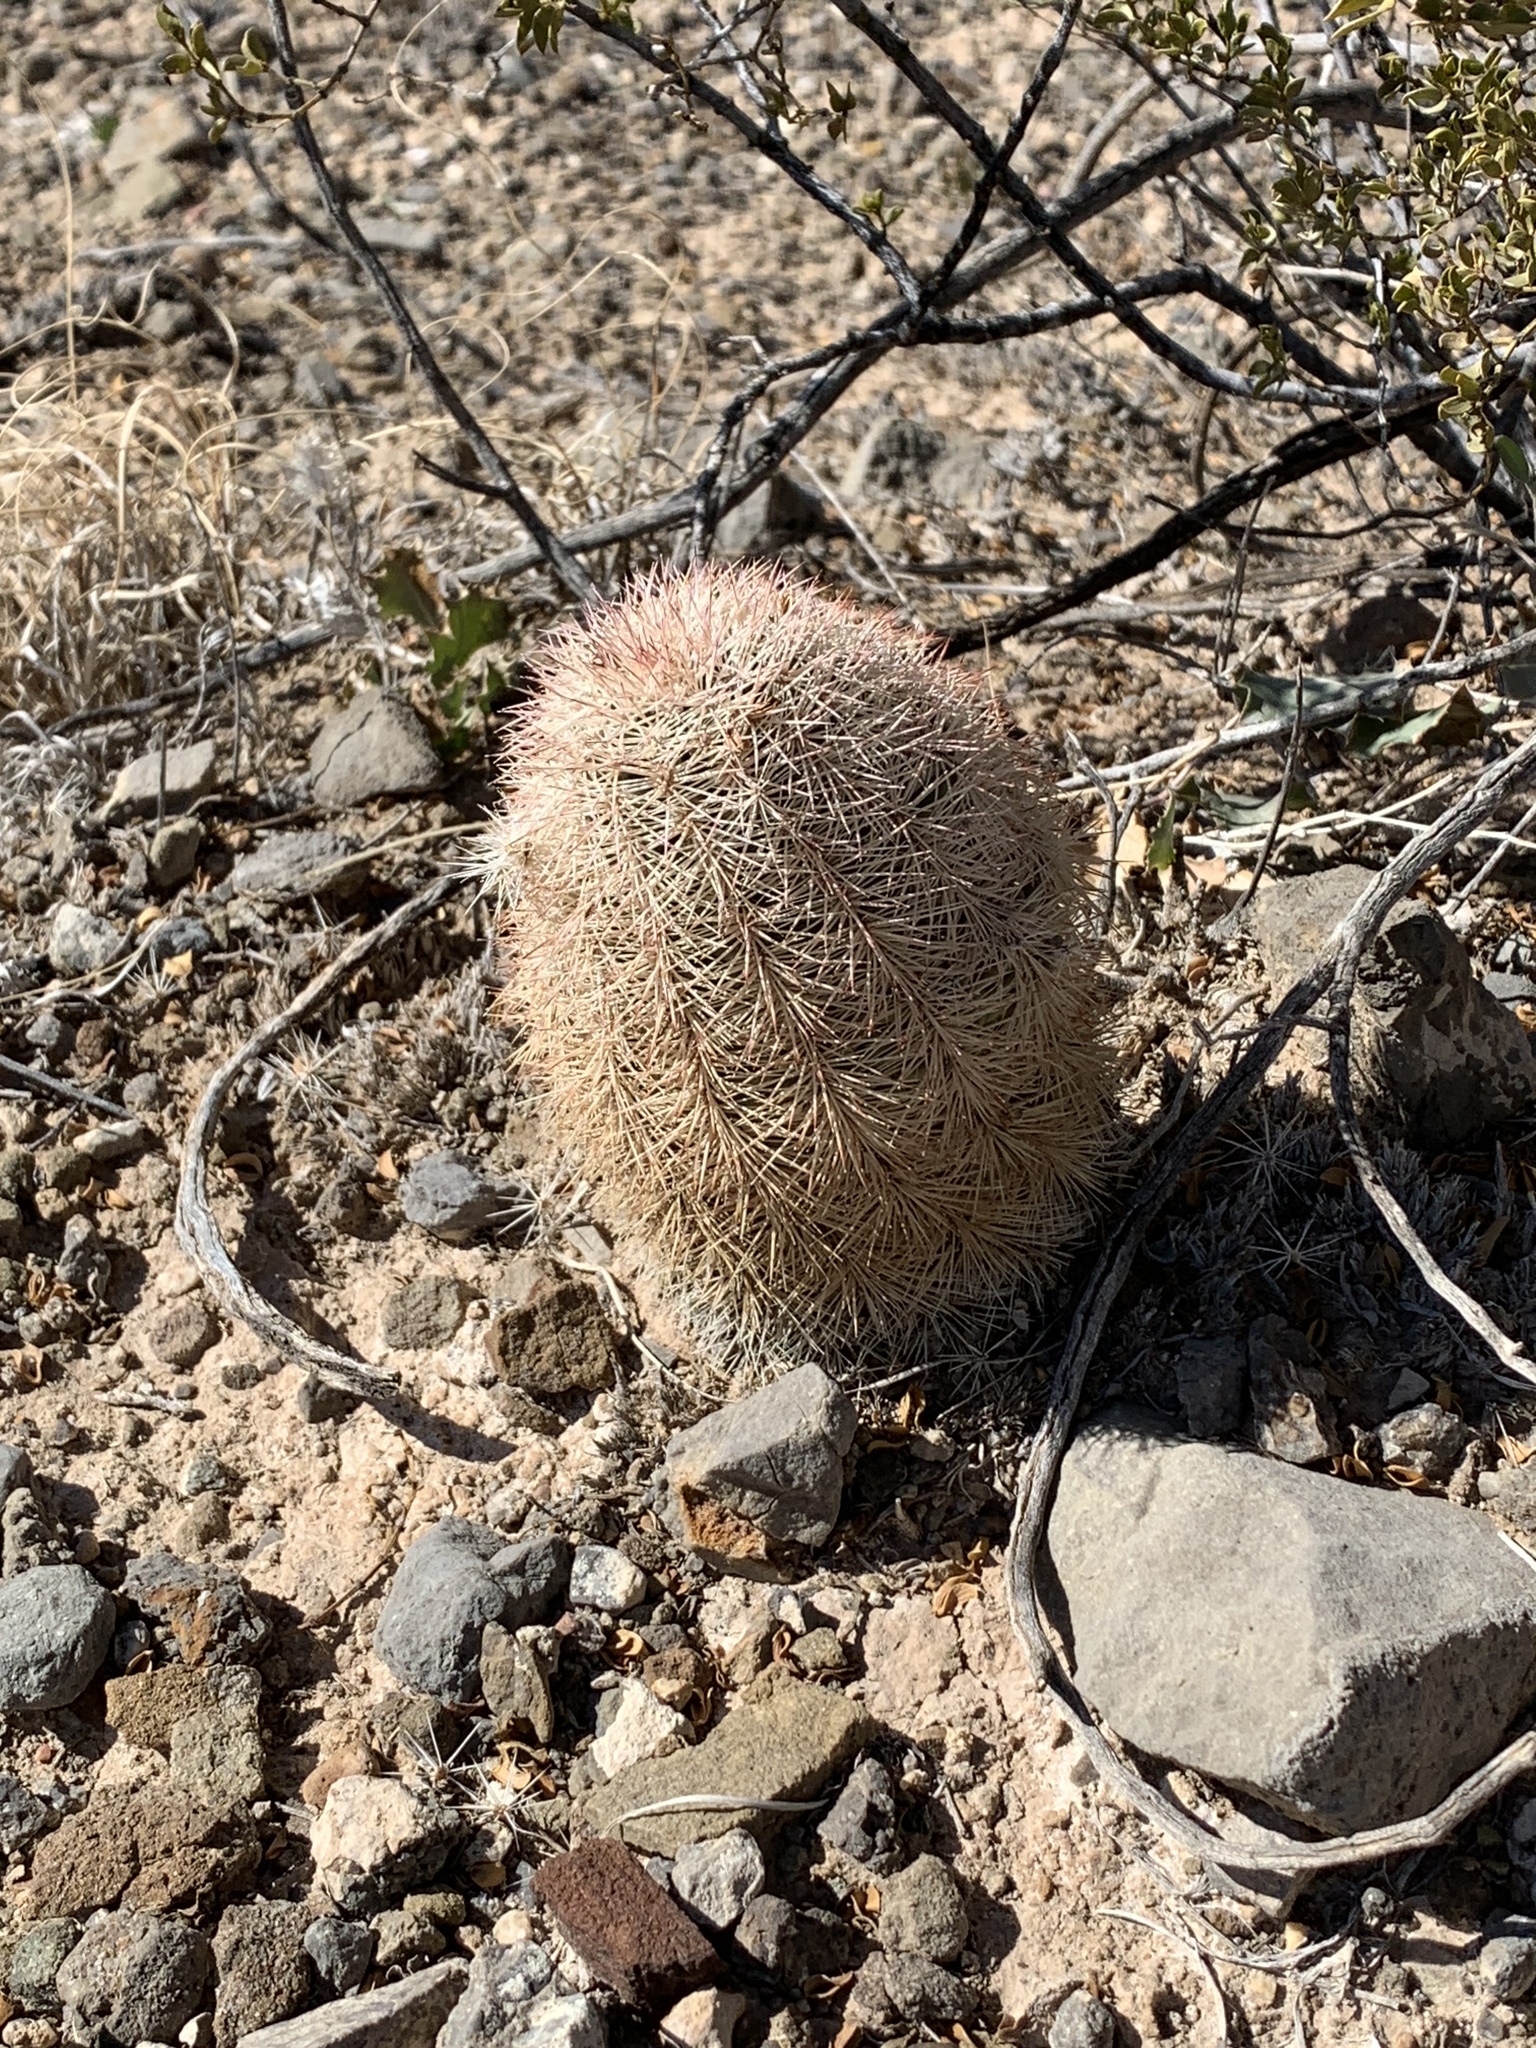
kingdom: Plantae
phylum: Tracheophyta
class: Magnoliopsida
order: Caryophyllales
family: Cactaceae
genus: Echinocereus
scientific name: Echinocereus dasyacanthus
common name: Spiny hedgehog cactus
